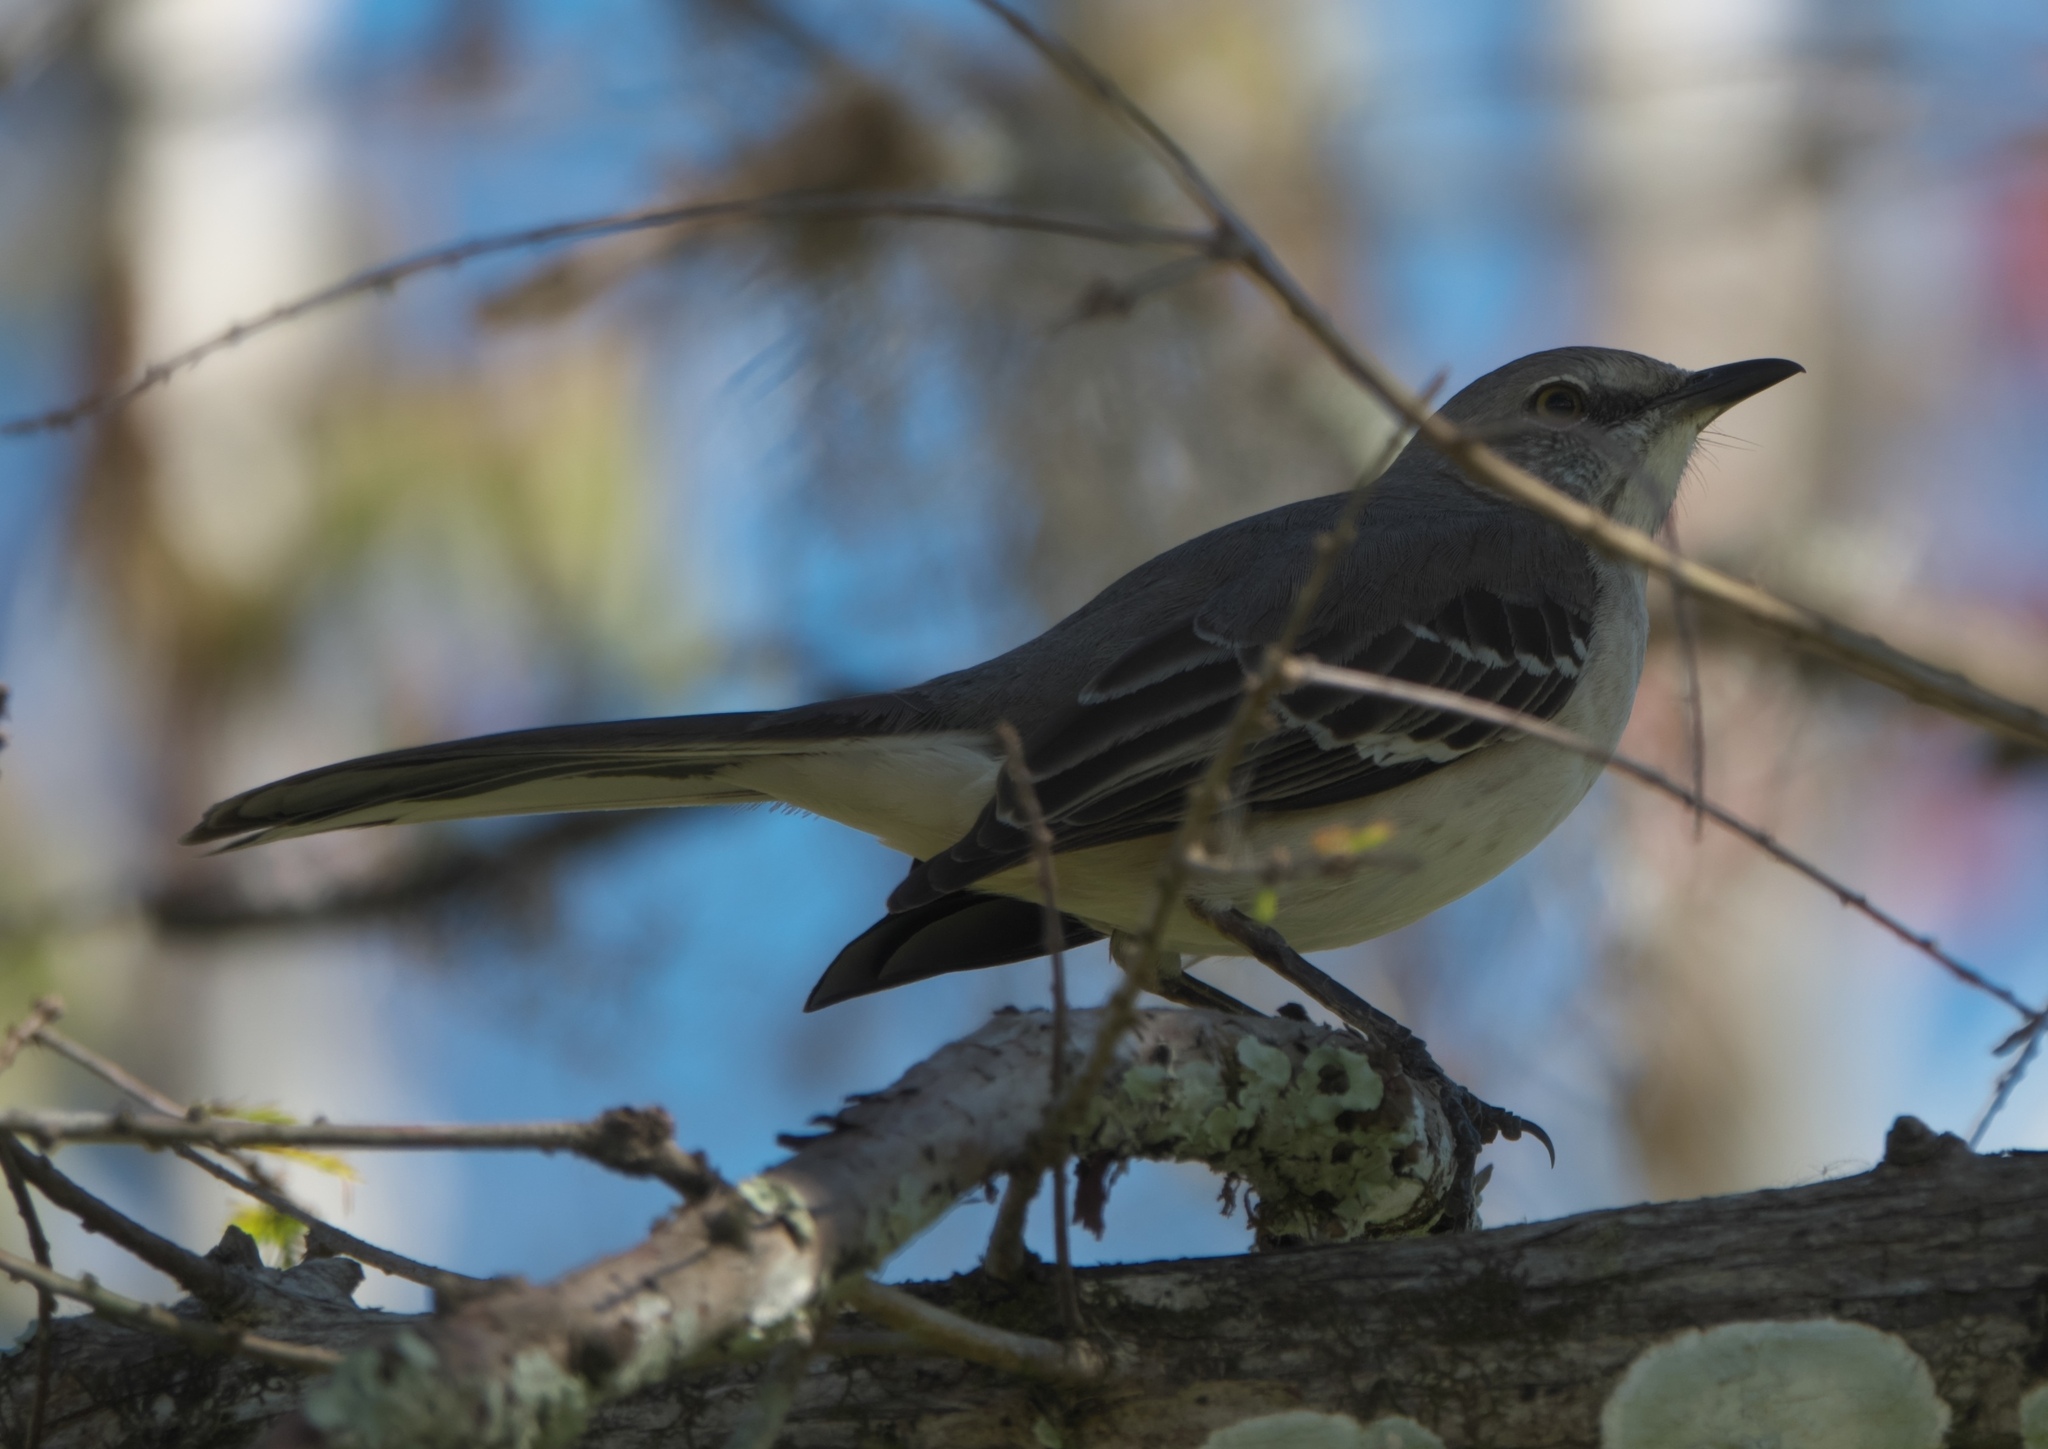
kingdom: Animalia
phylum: Chordata
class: Aves
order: Passeriformes
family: Mimidae
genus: Mimus
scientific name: Mimus polyglottos
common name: Northern mockingbird
